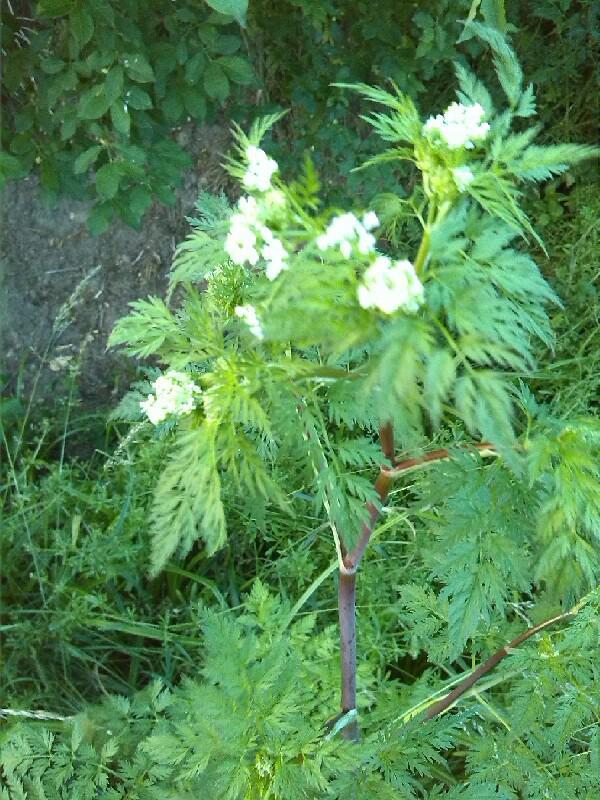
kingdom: Plantae
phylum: Tracheophyta
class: Magnoliopsida
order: Apiales
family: Apiaceae
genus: Chaerophyllum
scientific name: Chaerophyllum bulbosum
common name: Bulbous chervil
